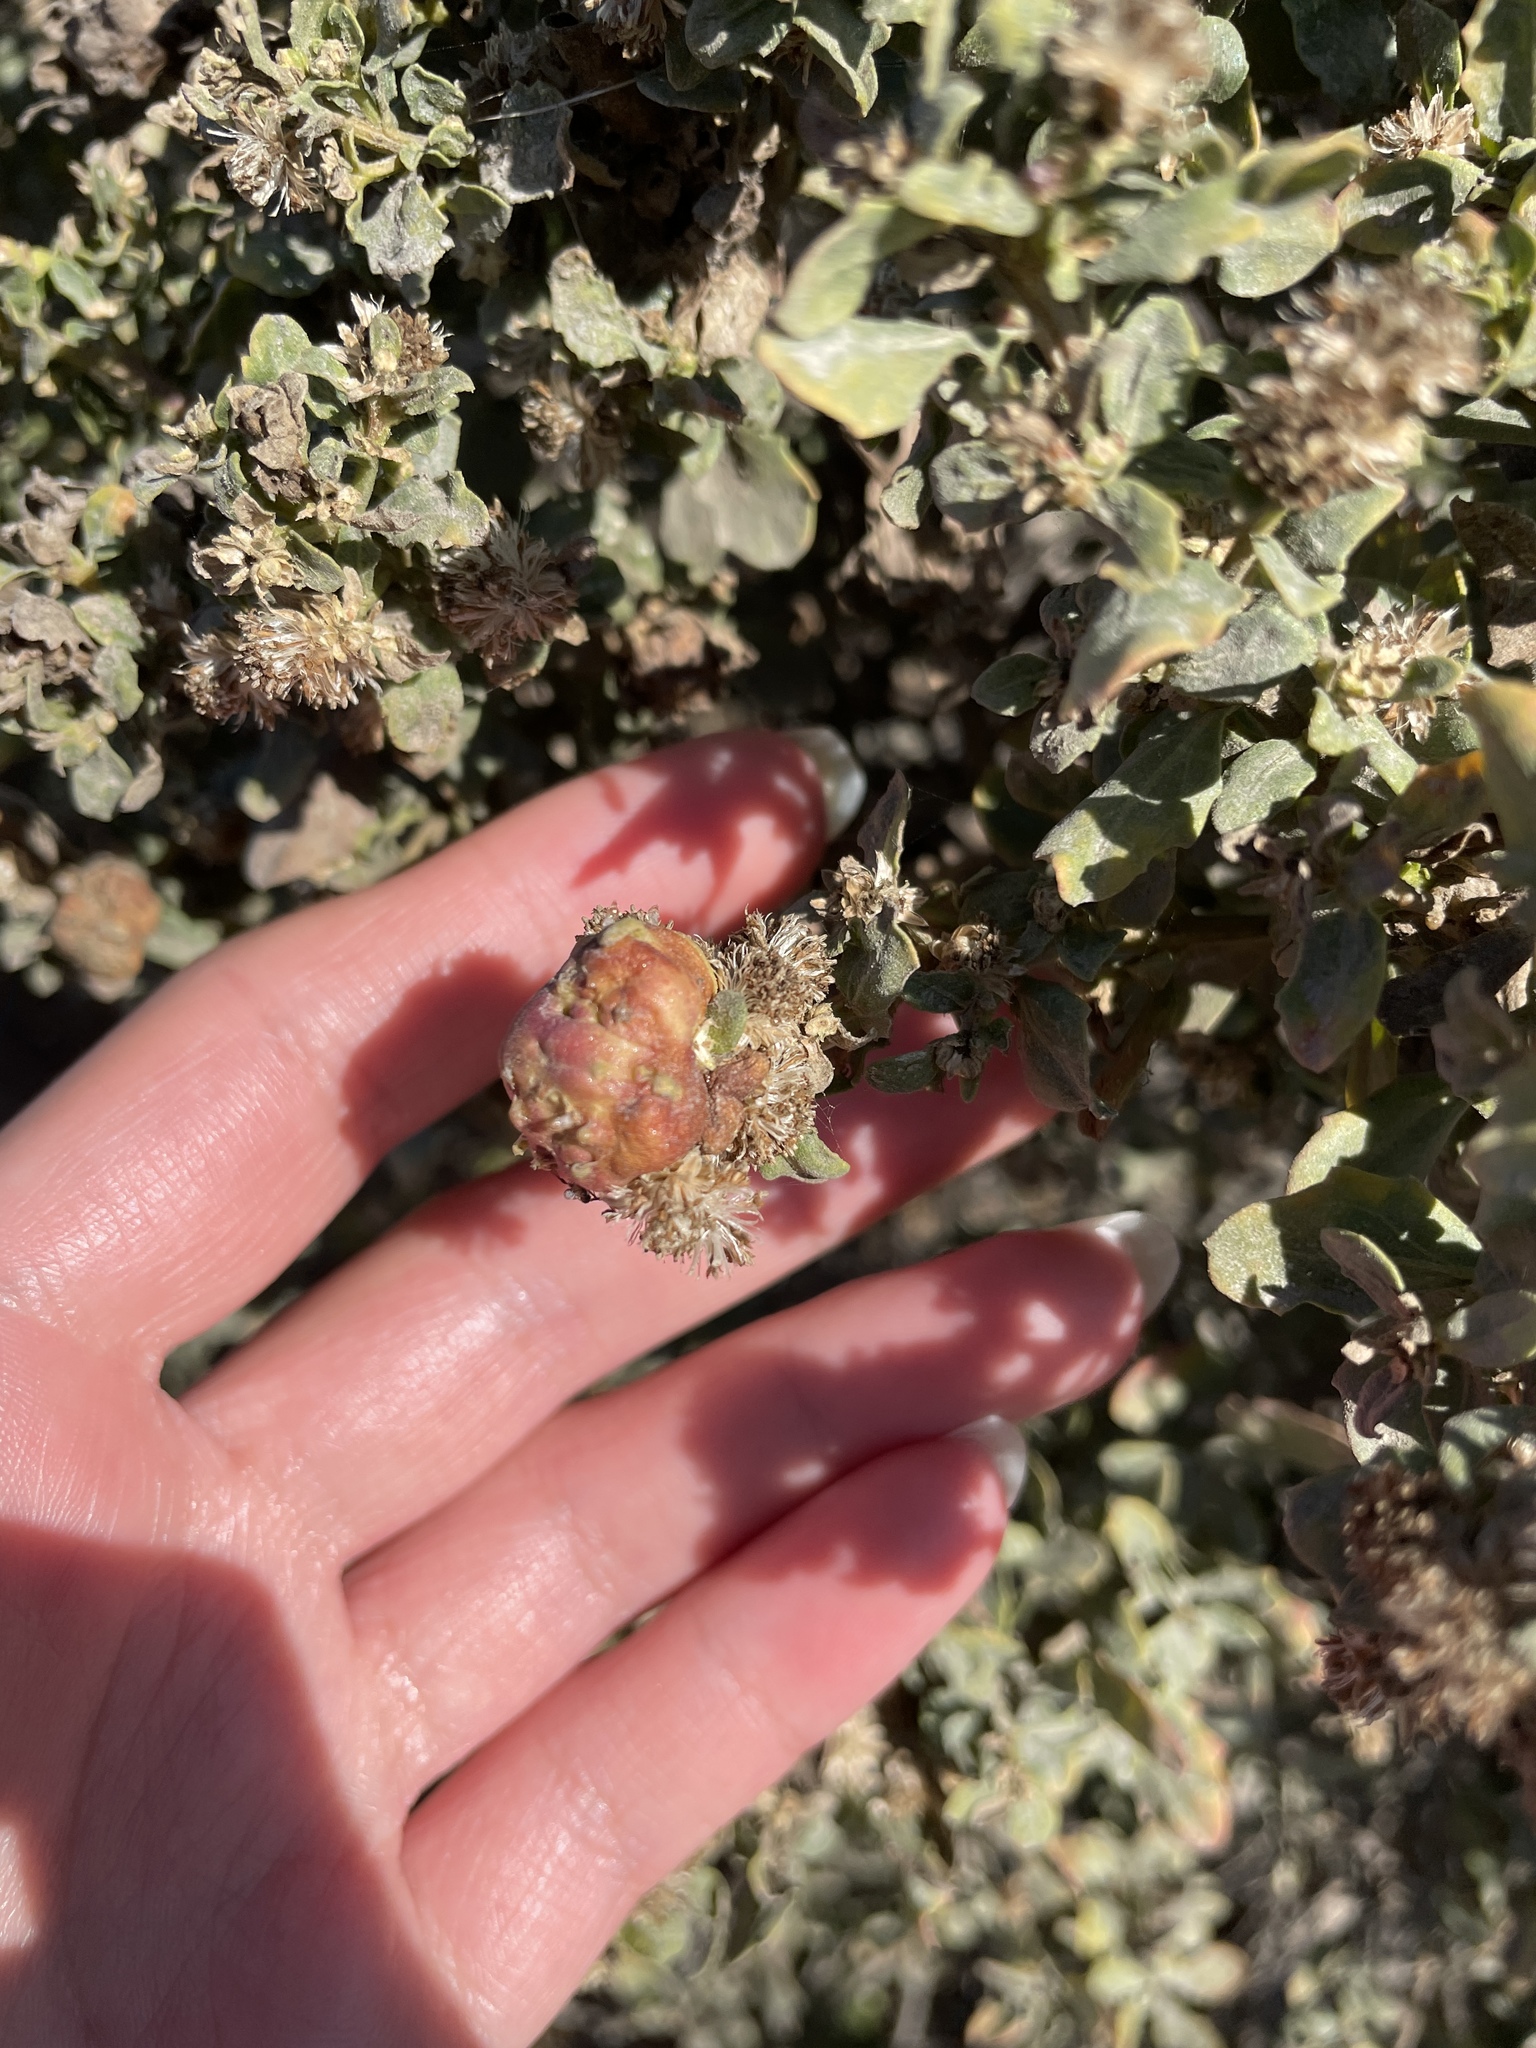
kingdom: Animalia
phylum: Arthropoda
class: Insecta
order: Diptera
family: Cecidomyiidae
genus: Rhopalomyia
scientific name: Rhopalomyia californica
